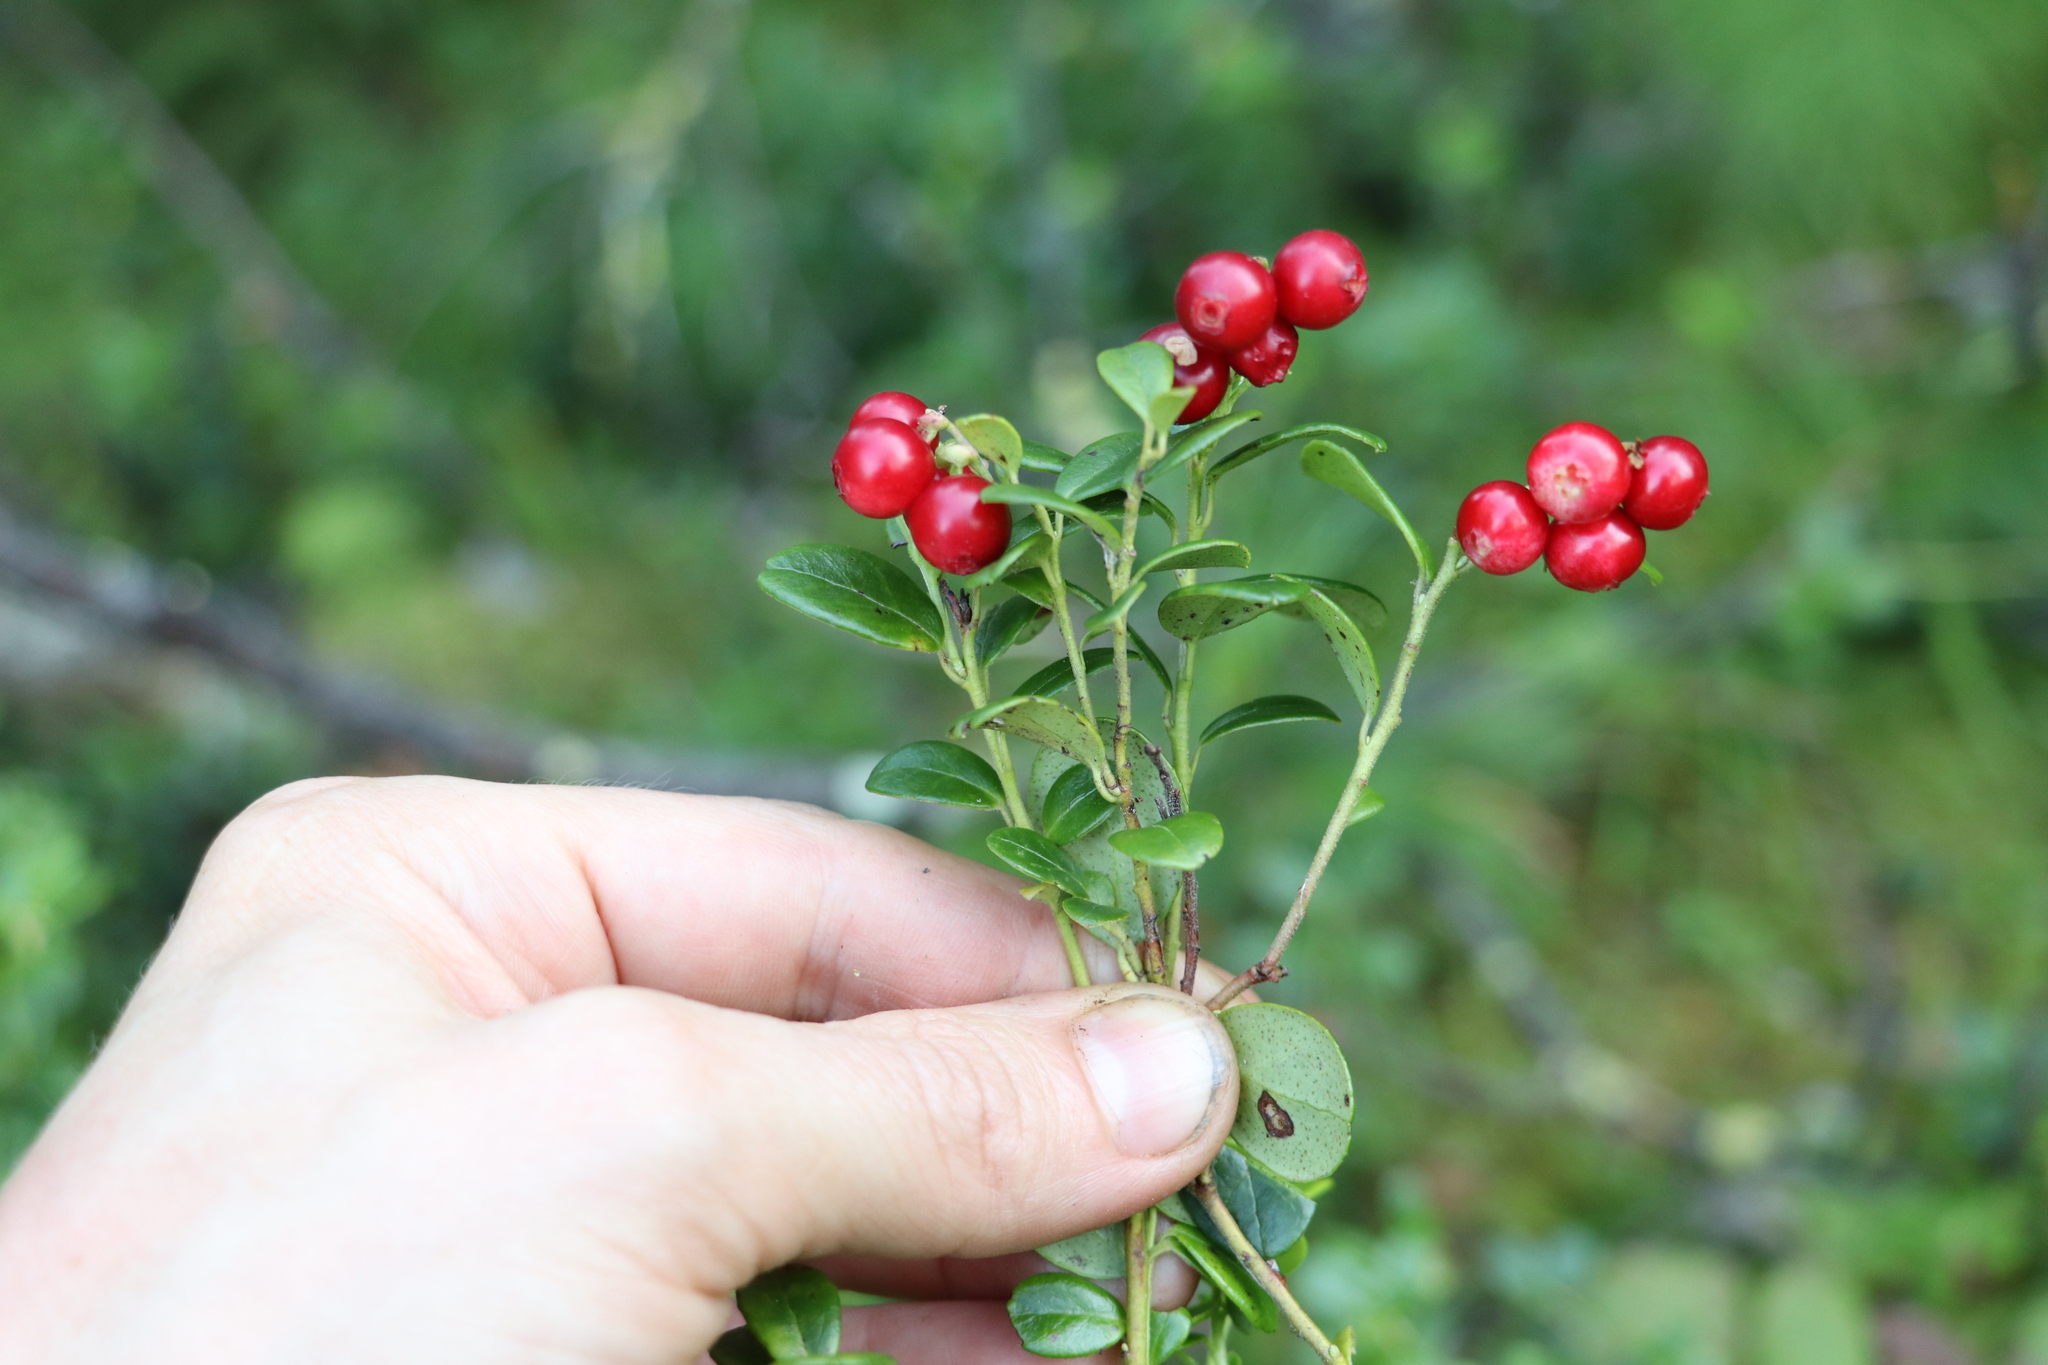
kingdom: Plantae
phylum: Tracheophyta
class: Magnoliopsida
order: Ericales
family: Ericaceae
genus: Vaccinium
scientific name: Vaccinium vitis-idaea
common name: Cowberry
